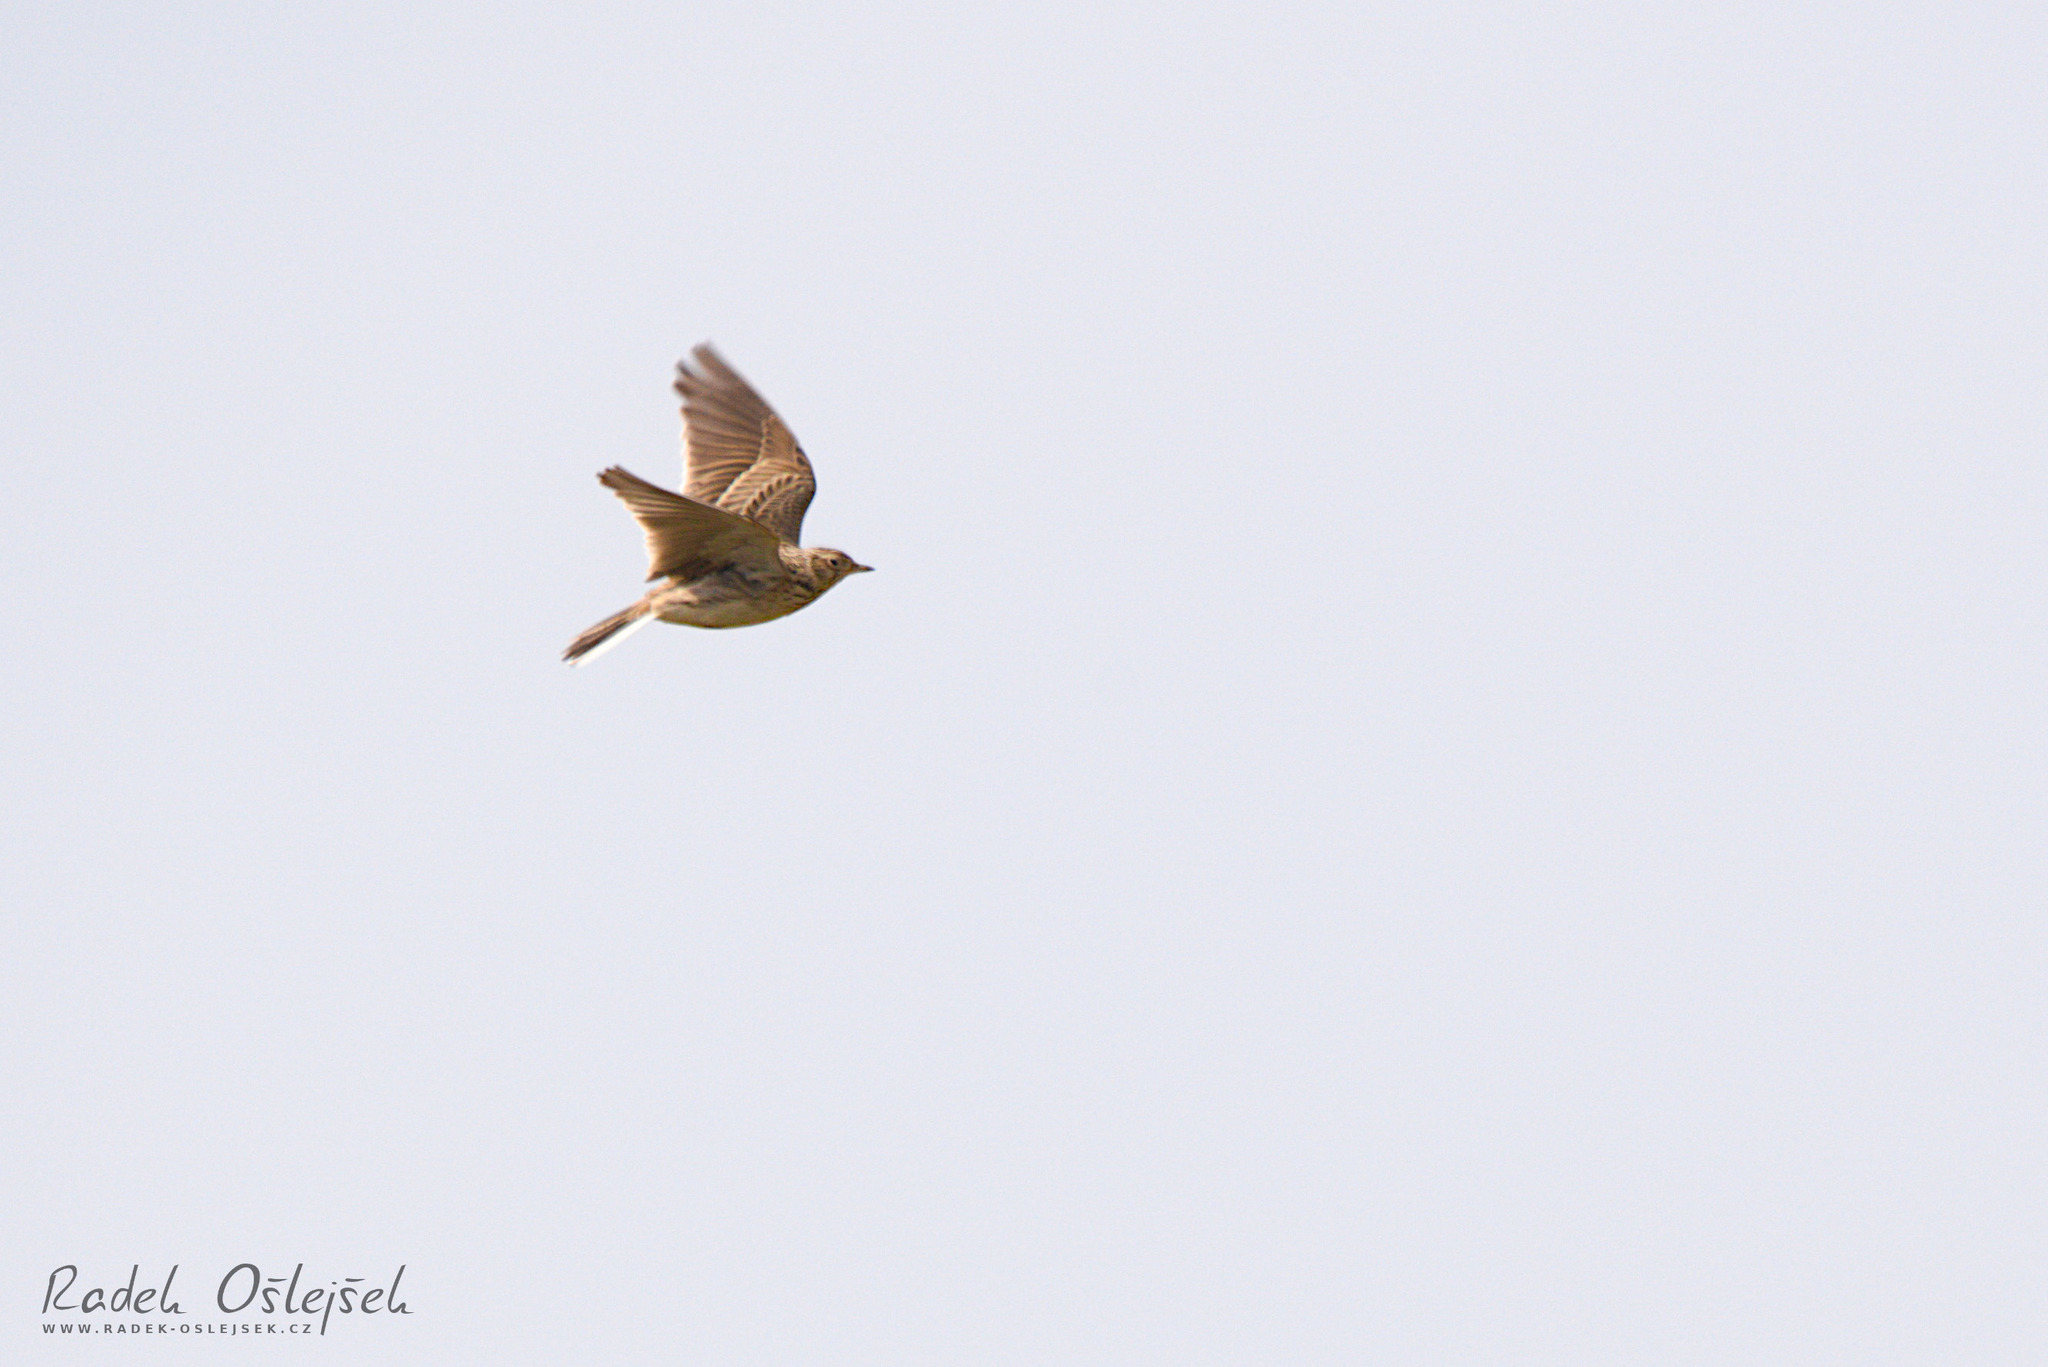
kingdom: Animalia
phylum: Chordata
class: Aves
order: Passeriformes
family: Alaudidae
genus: Alauda
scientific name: Alauda arvensis
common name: Eurasian skylark
